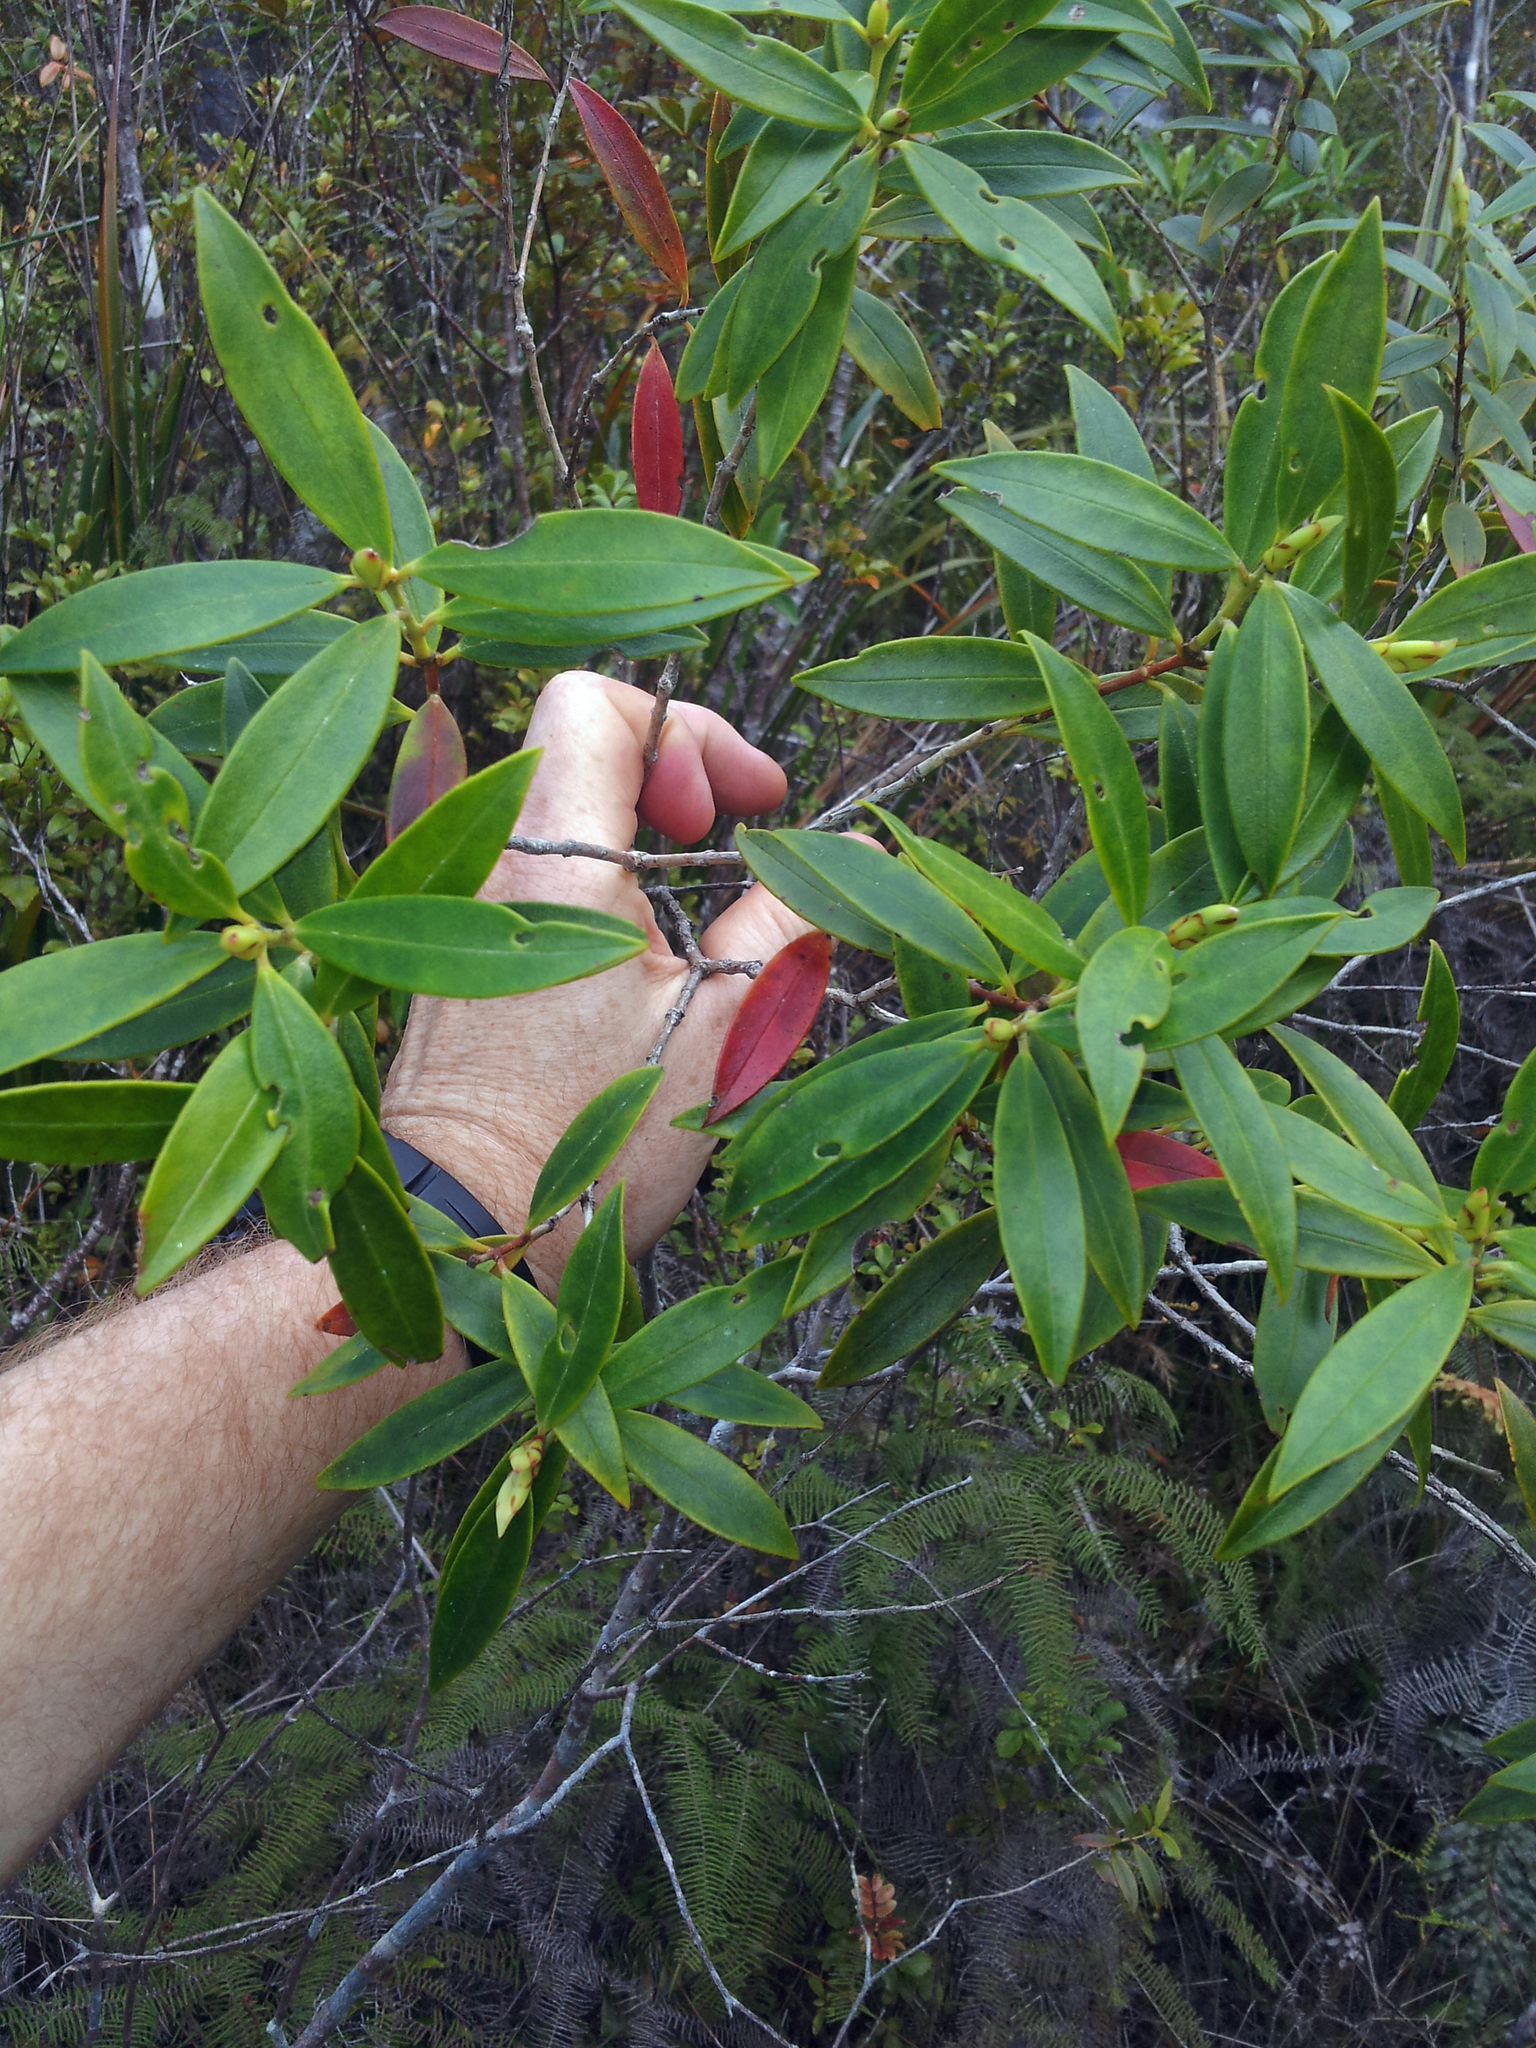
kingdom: Plantae
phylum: Tracheophyta
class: Magnoliopsida
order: Myrtales
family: Myrtaceae
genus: Metrosideros
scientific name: Metrosideros umbellata
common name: Southern rata
